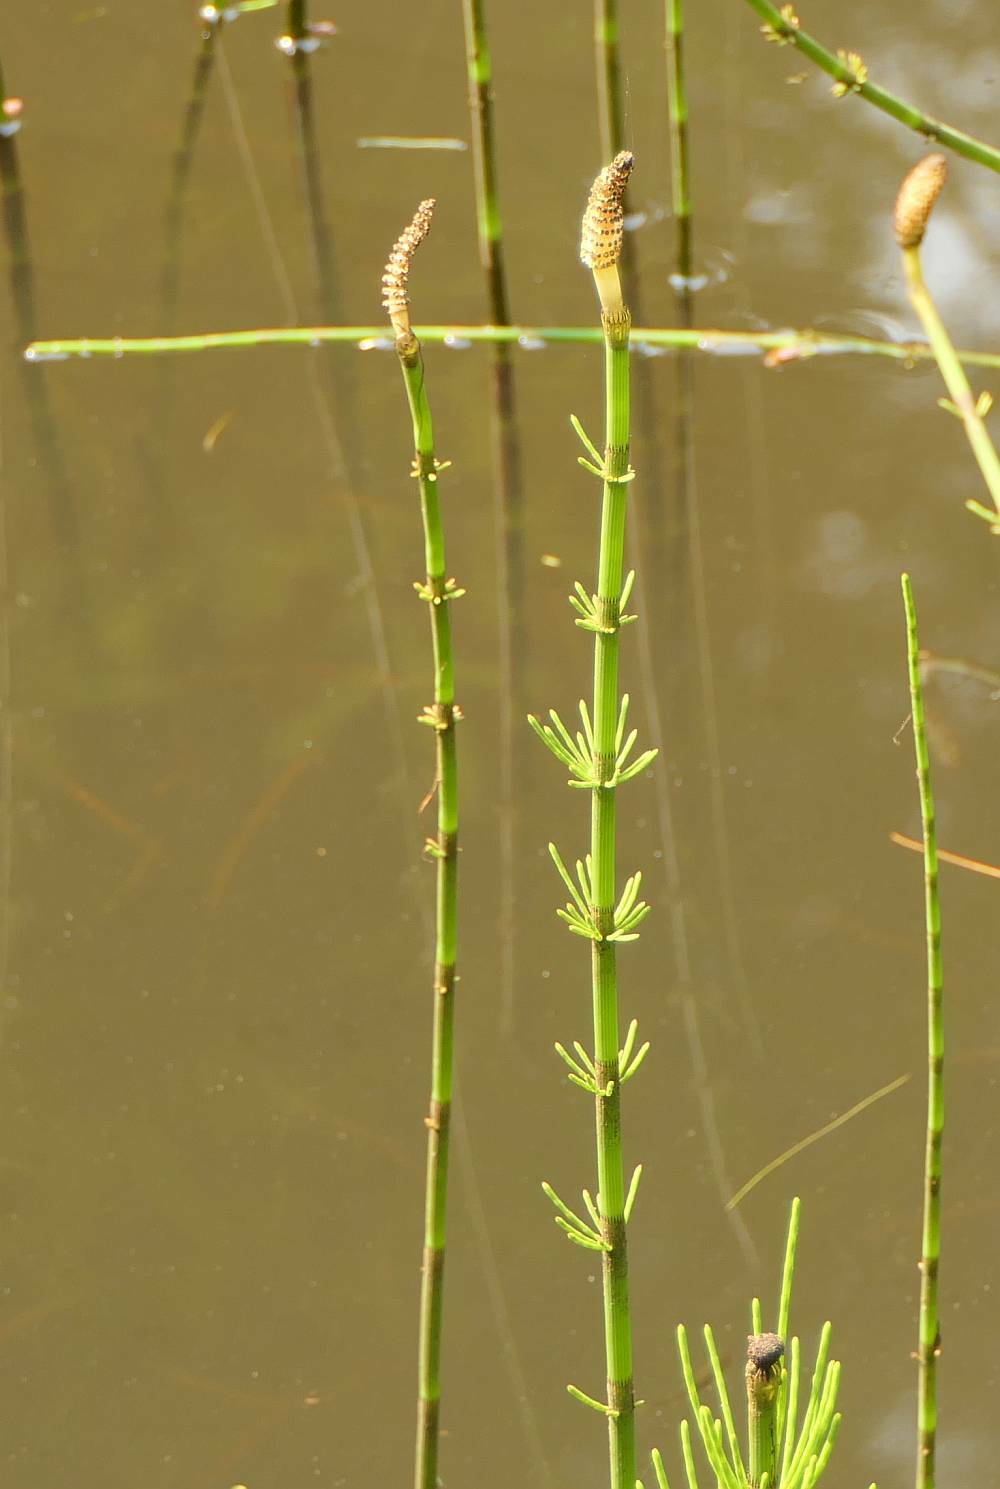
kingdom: Plantae
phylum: Tracheophyta
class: Polypodiopsida
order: Equisetales
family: Equisetaceae
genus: Equisetum
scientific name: Equisetum fluviatile
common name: Water horsetail
